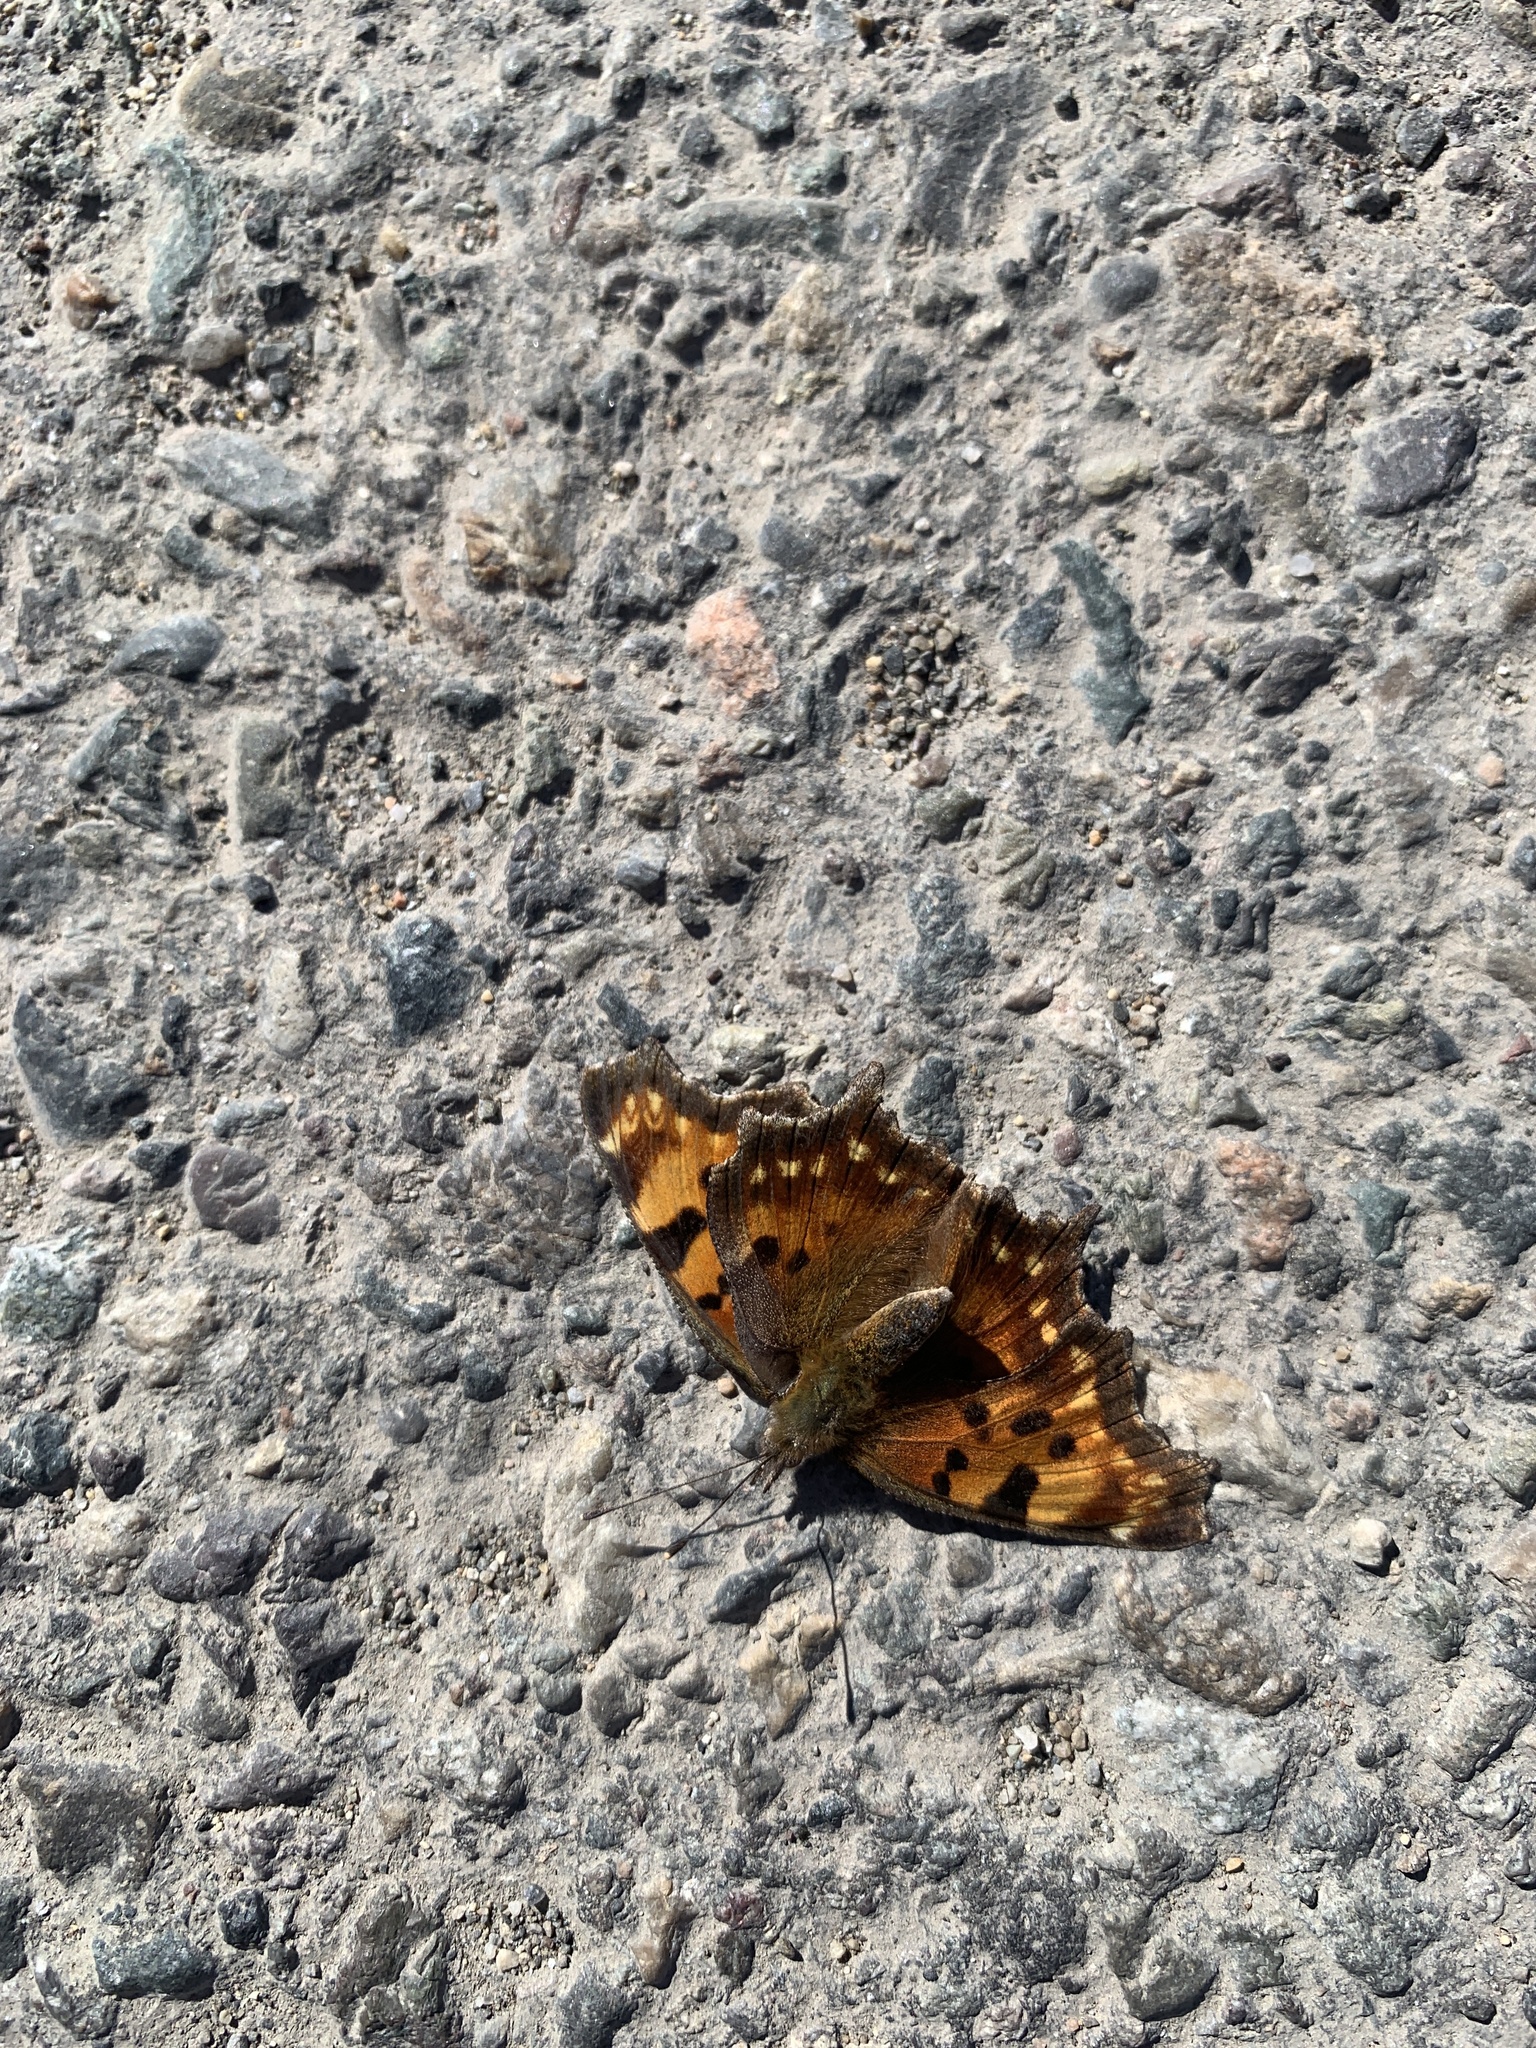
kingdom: Animalia
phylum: Arthropoda
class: Insecta
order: Lepidoptera
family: Nymphalidae
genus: Polygonia
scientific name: Polygonia faunus
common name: Green comma
